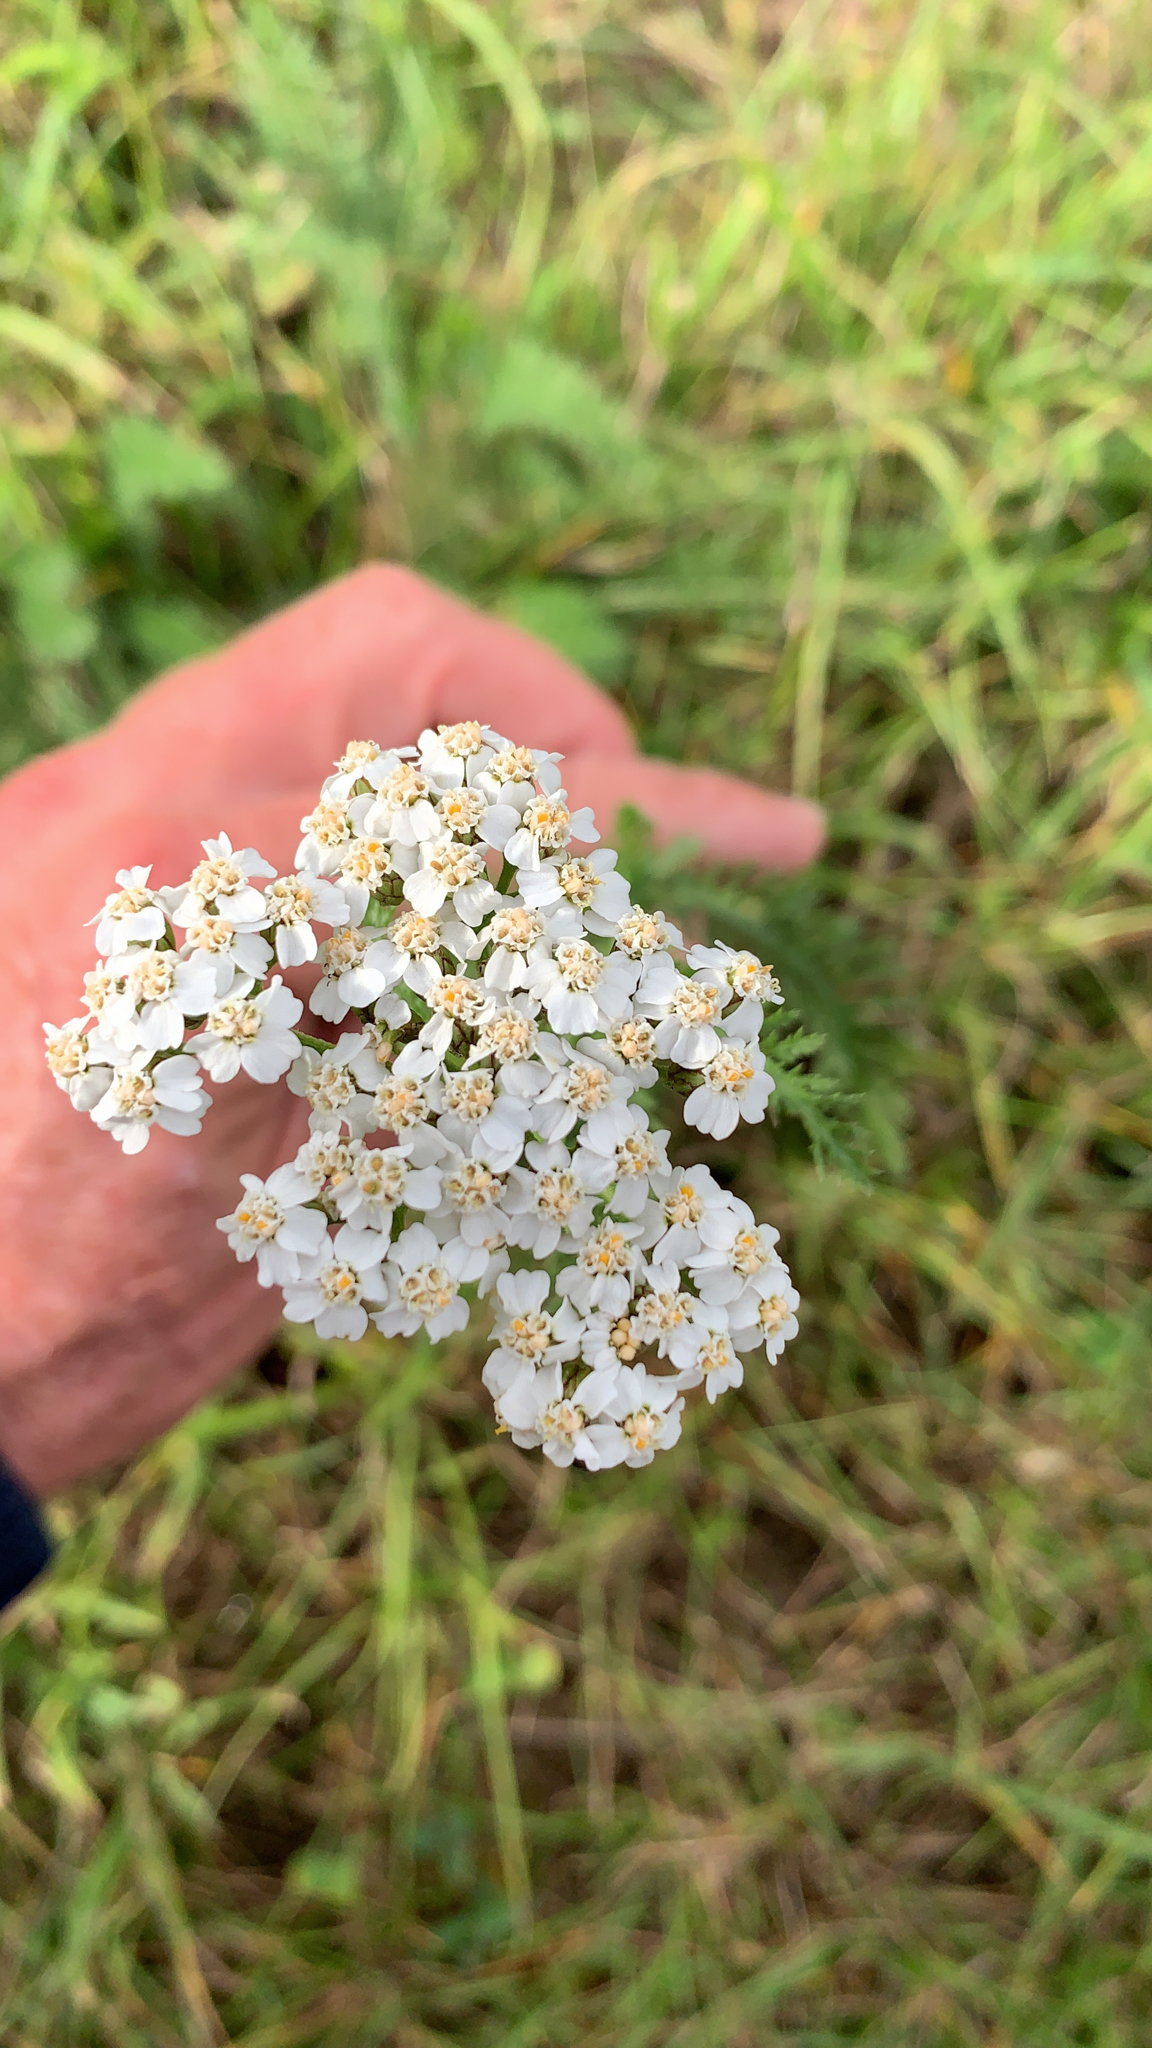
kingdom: Plantae
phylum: Tracheophyta
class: Magnoliopsida
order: Asterales
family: Asteraceae
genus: Achillea
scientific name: Achillea millefolium
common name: Yarrow
